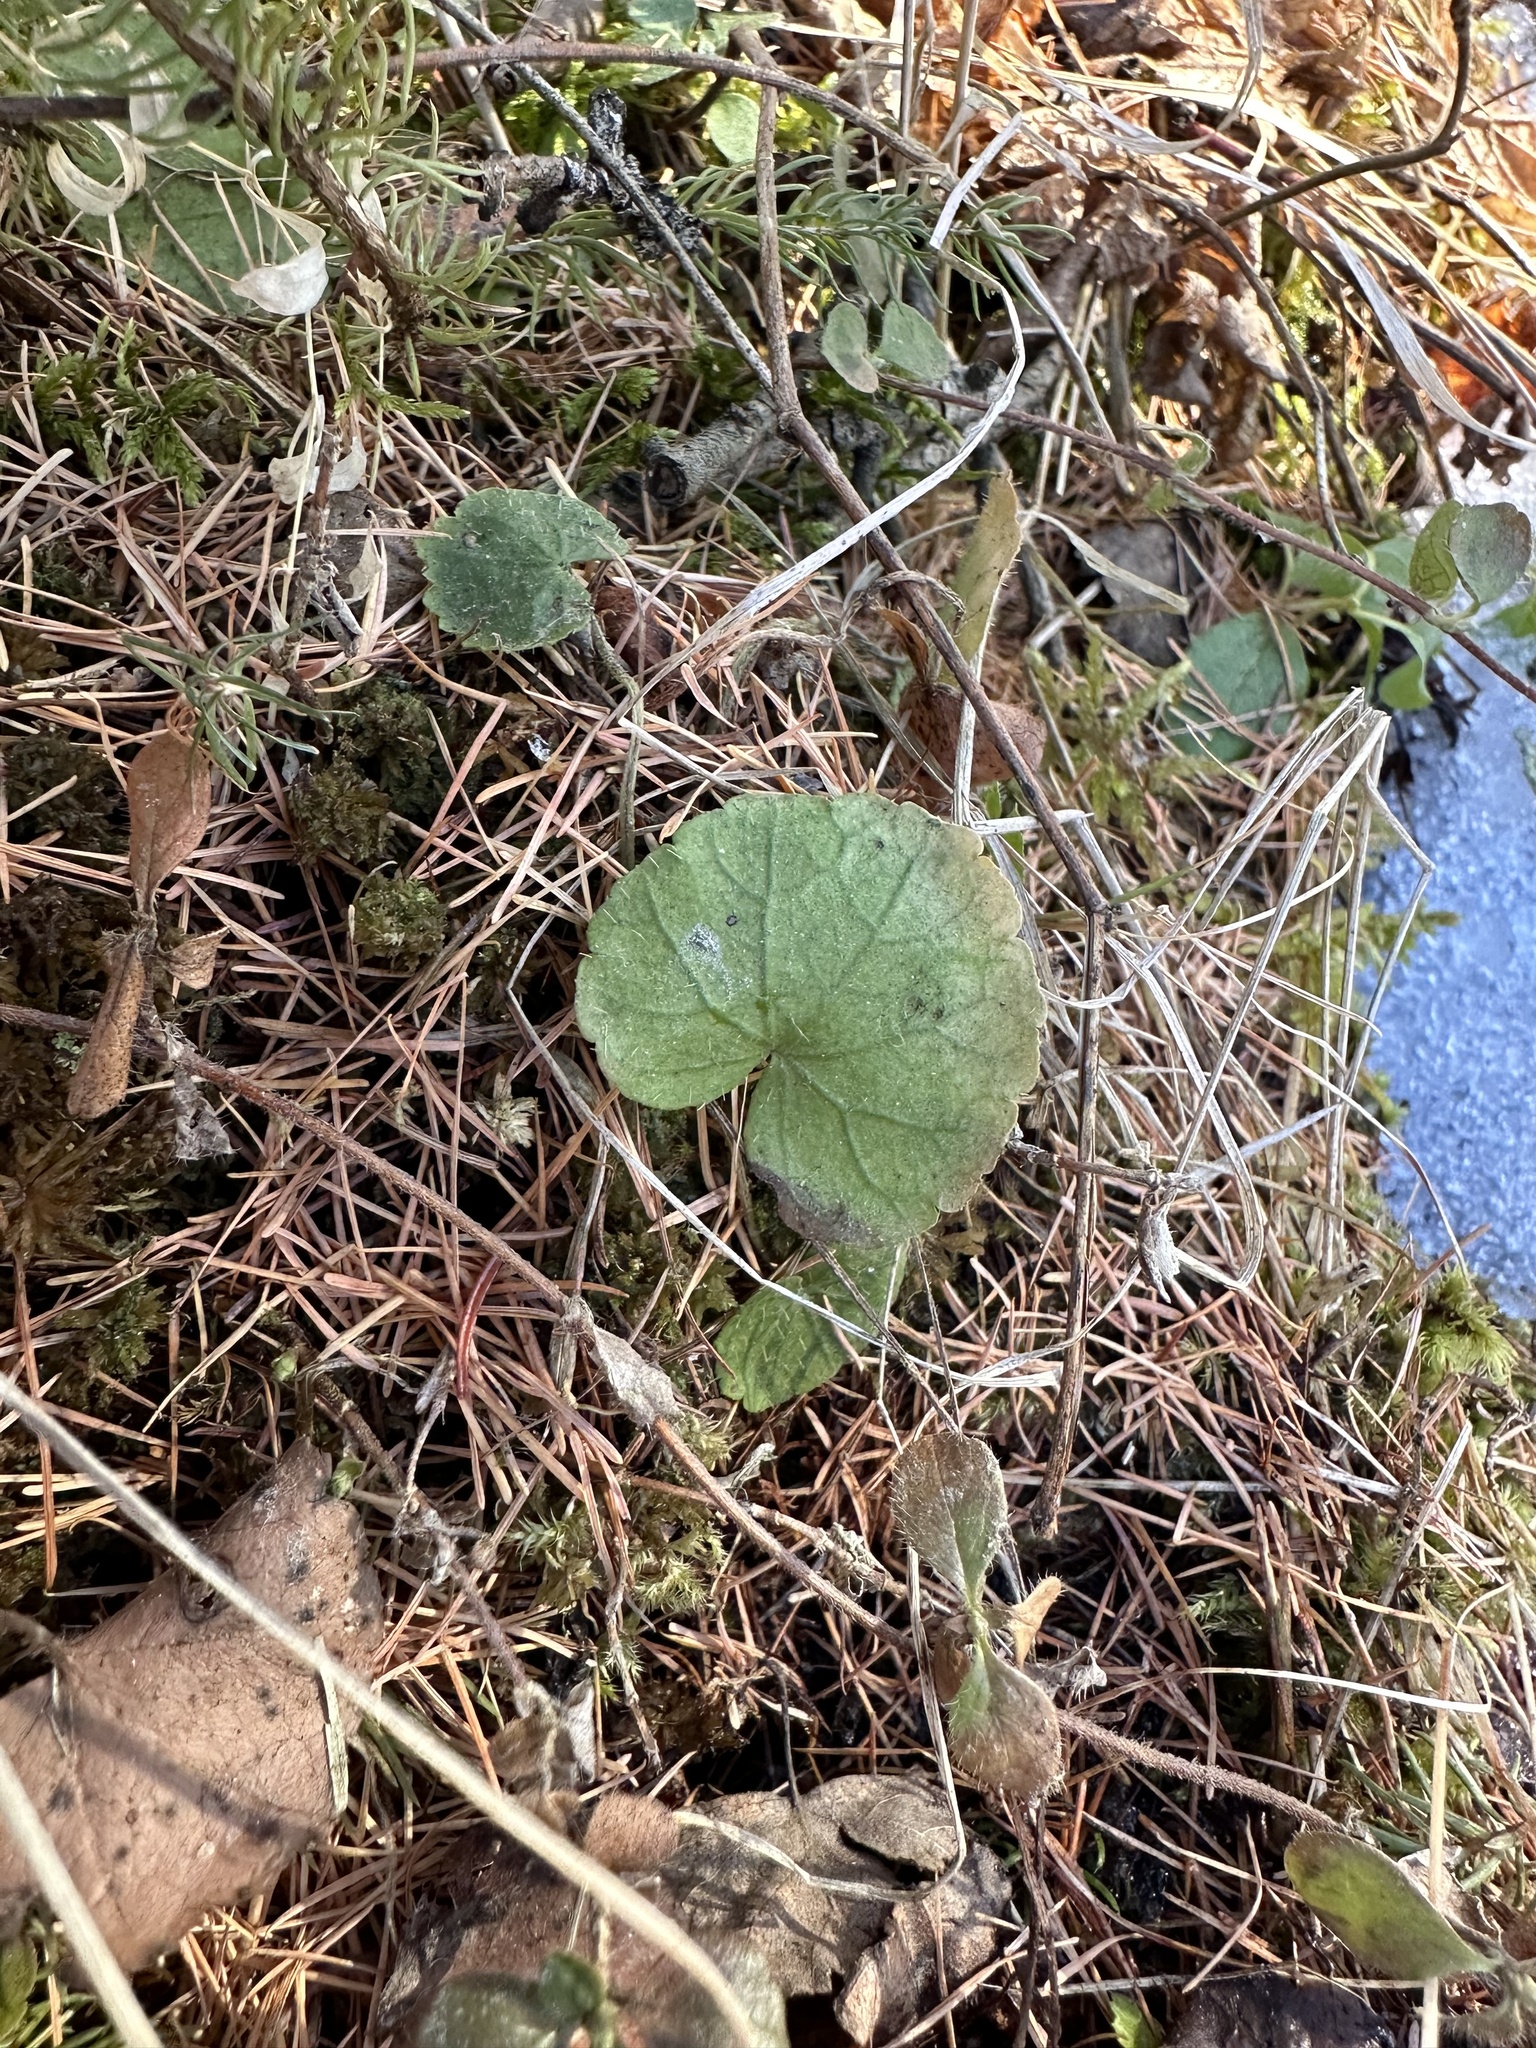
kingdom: Plantae
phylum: Tracheophyta
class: Magnoliopsida
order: Saxifragales
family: Saxifragaceae
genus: Mitella
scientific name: Mitella nuda
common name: Bare-stemmed bishop's-cap
